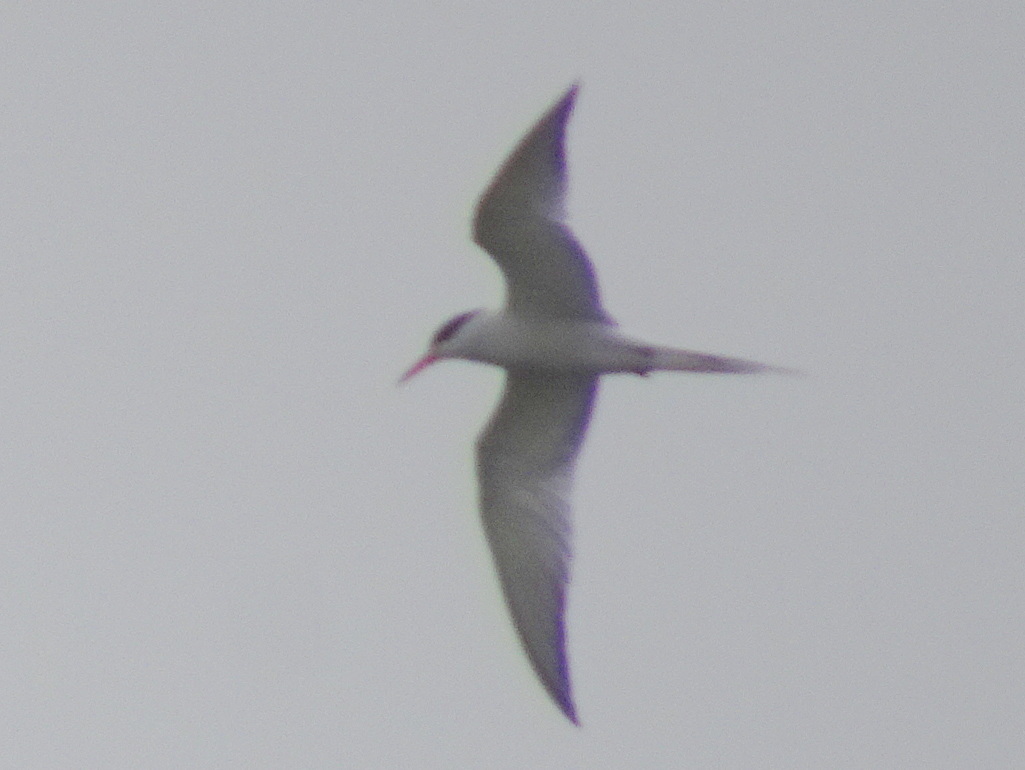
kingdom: Animalia
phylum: Chordata
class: Aves
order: Charadriiformes
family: Laridae
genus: Sterna
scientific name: Sterna hirundo
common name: Common tern
